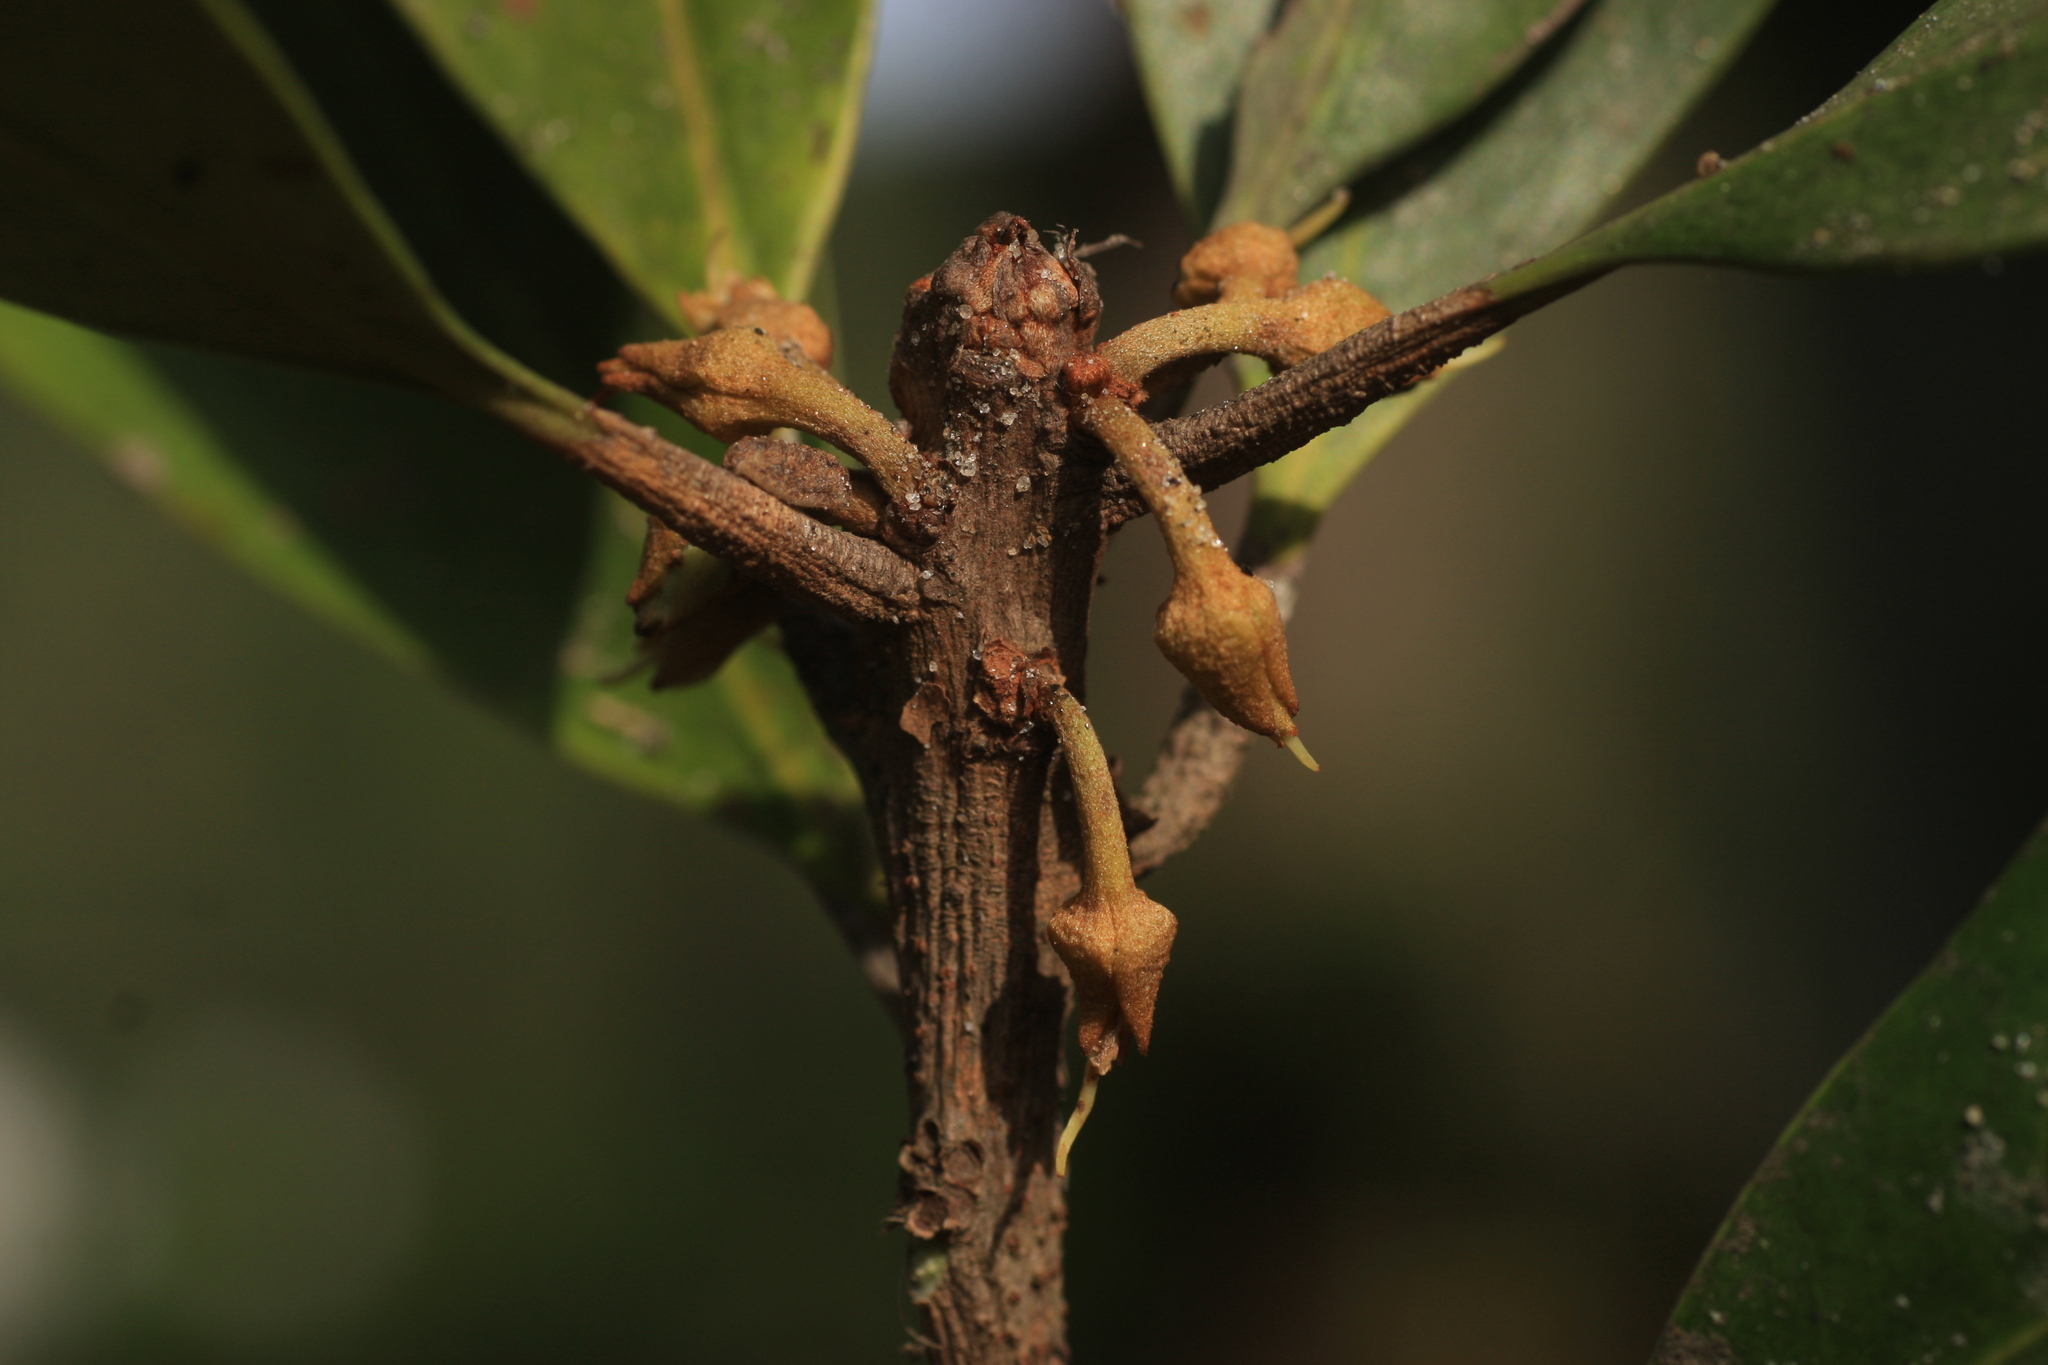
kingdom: Plantae
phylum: Tracheophyta
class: Magnoliopsida
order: Ericales
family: Sapotaceae
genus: Palaquium
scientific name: Palaquium ravii
